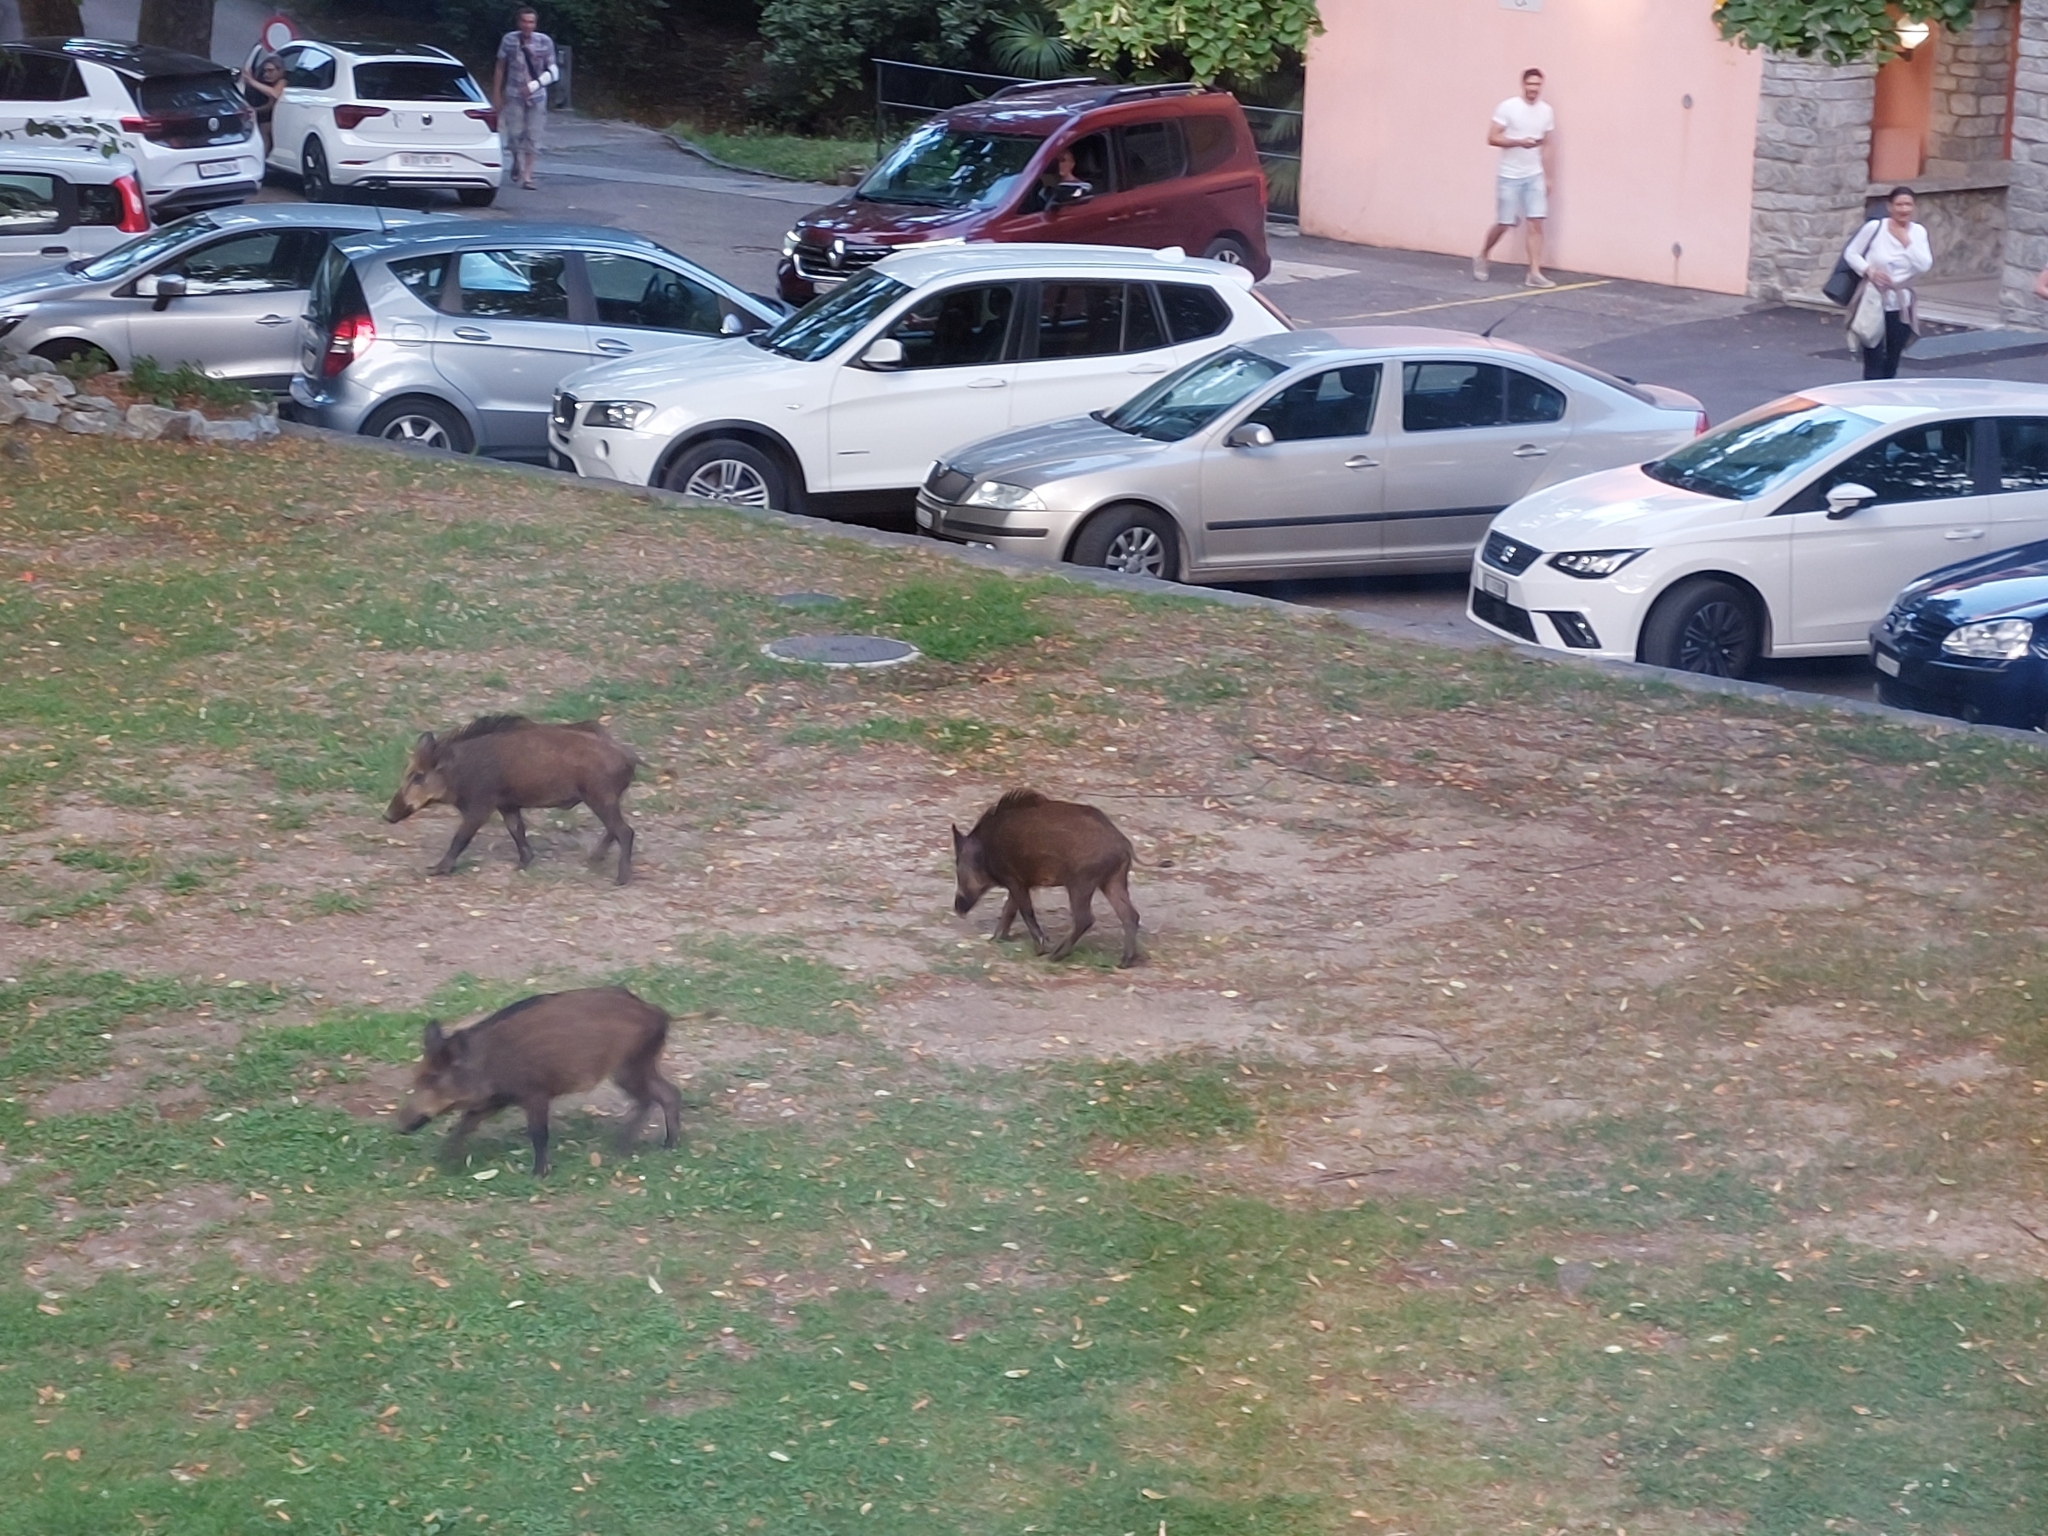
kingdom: Animalia
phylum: Chordata
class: Mammalia
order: Artiodactyla
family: Suidae
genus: Sus
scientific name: Sus scrofa
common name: Wild boar
